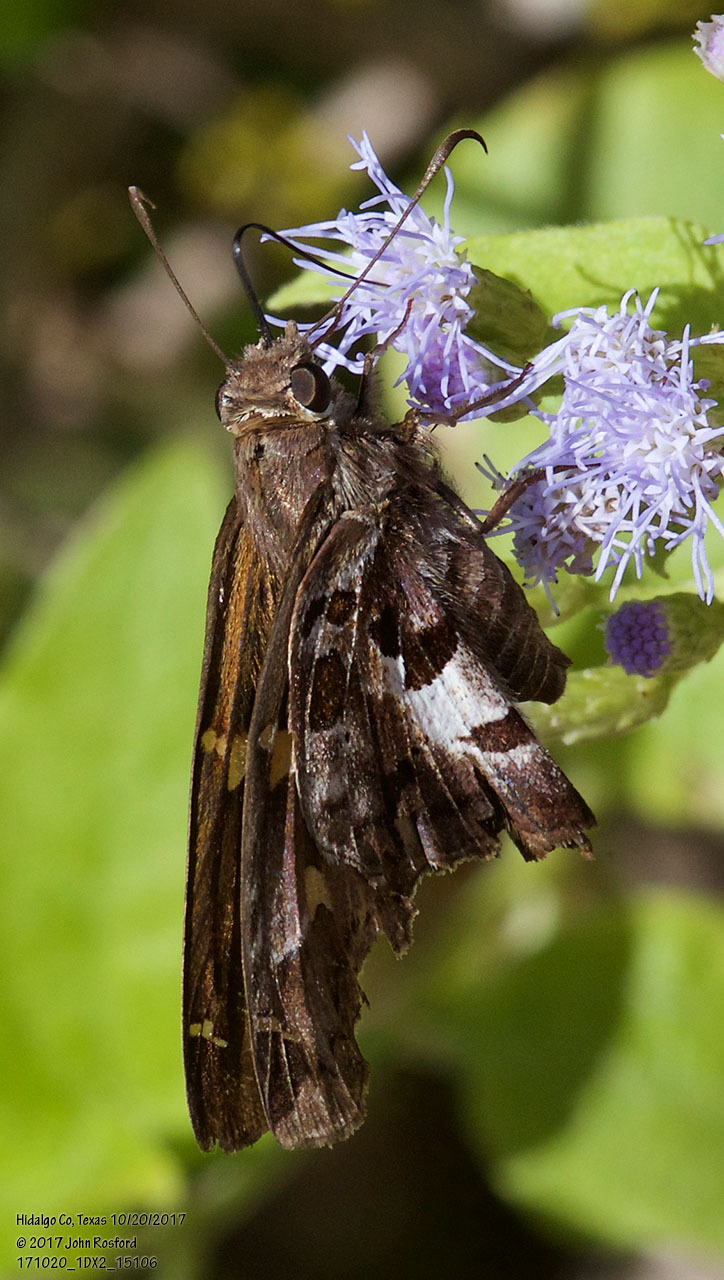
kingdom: Animalia
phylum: Arthropoda
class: Insecta
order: Lepidoptera
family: Hesperiidae
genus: Chioides
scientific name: Chioides zilpa
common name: Zilpa longtail
